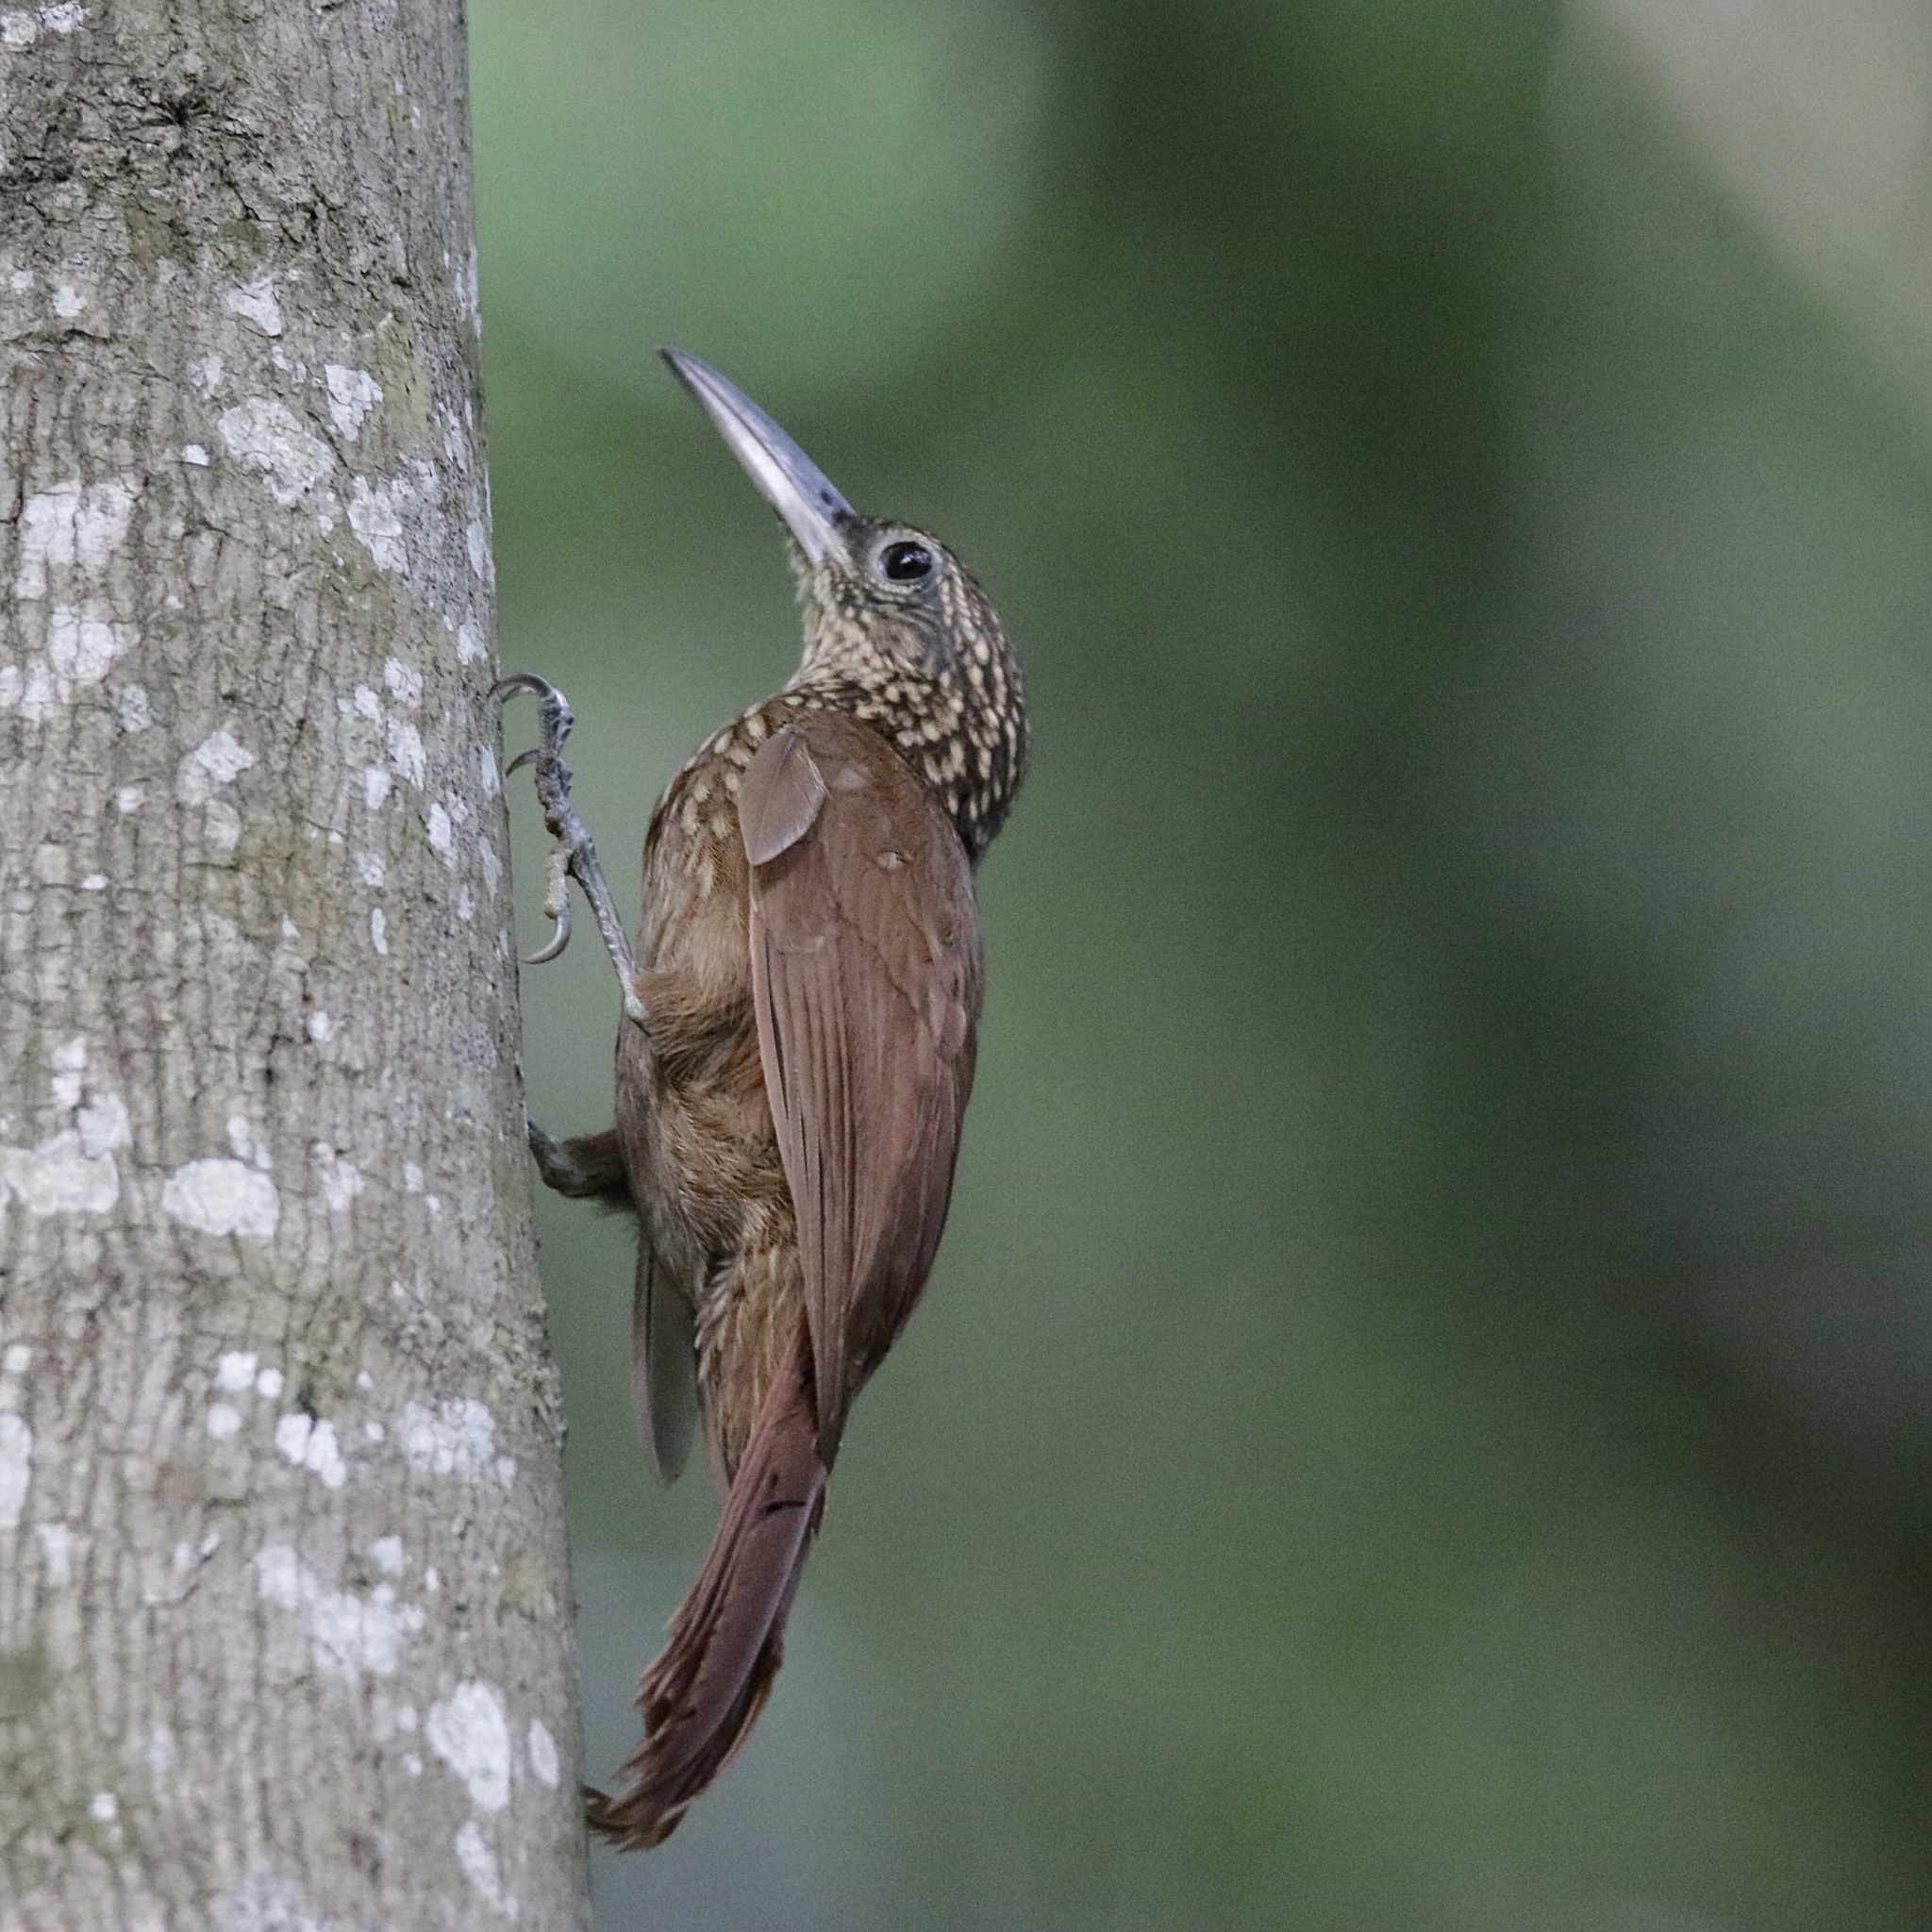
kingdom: Animalia
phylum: Chordata
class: Aves
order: Passeriformes
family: Furnariidae
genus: Xiphorhynchus
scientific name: Xiphorhynchus susurrans
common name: Cocoa woodcreeper
